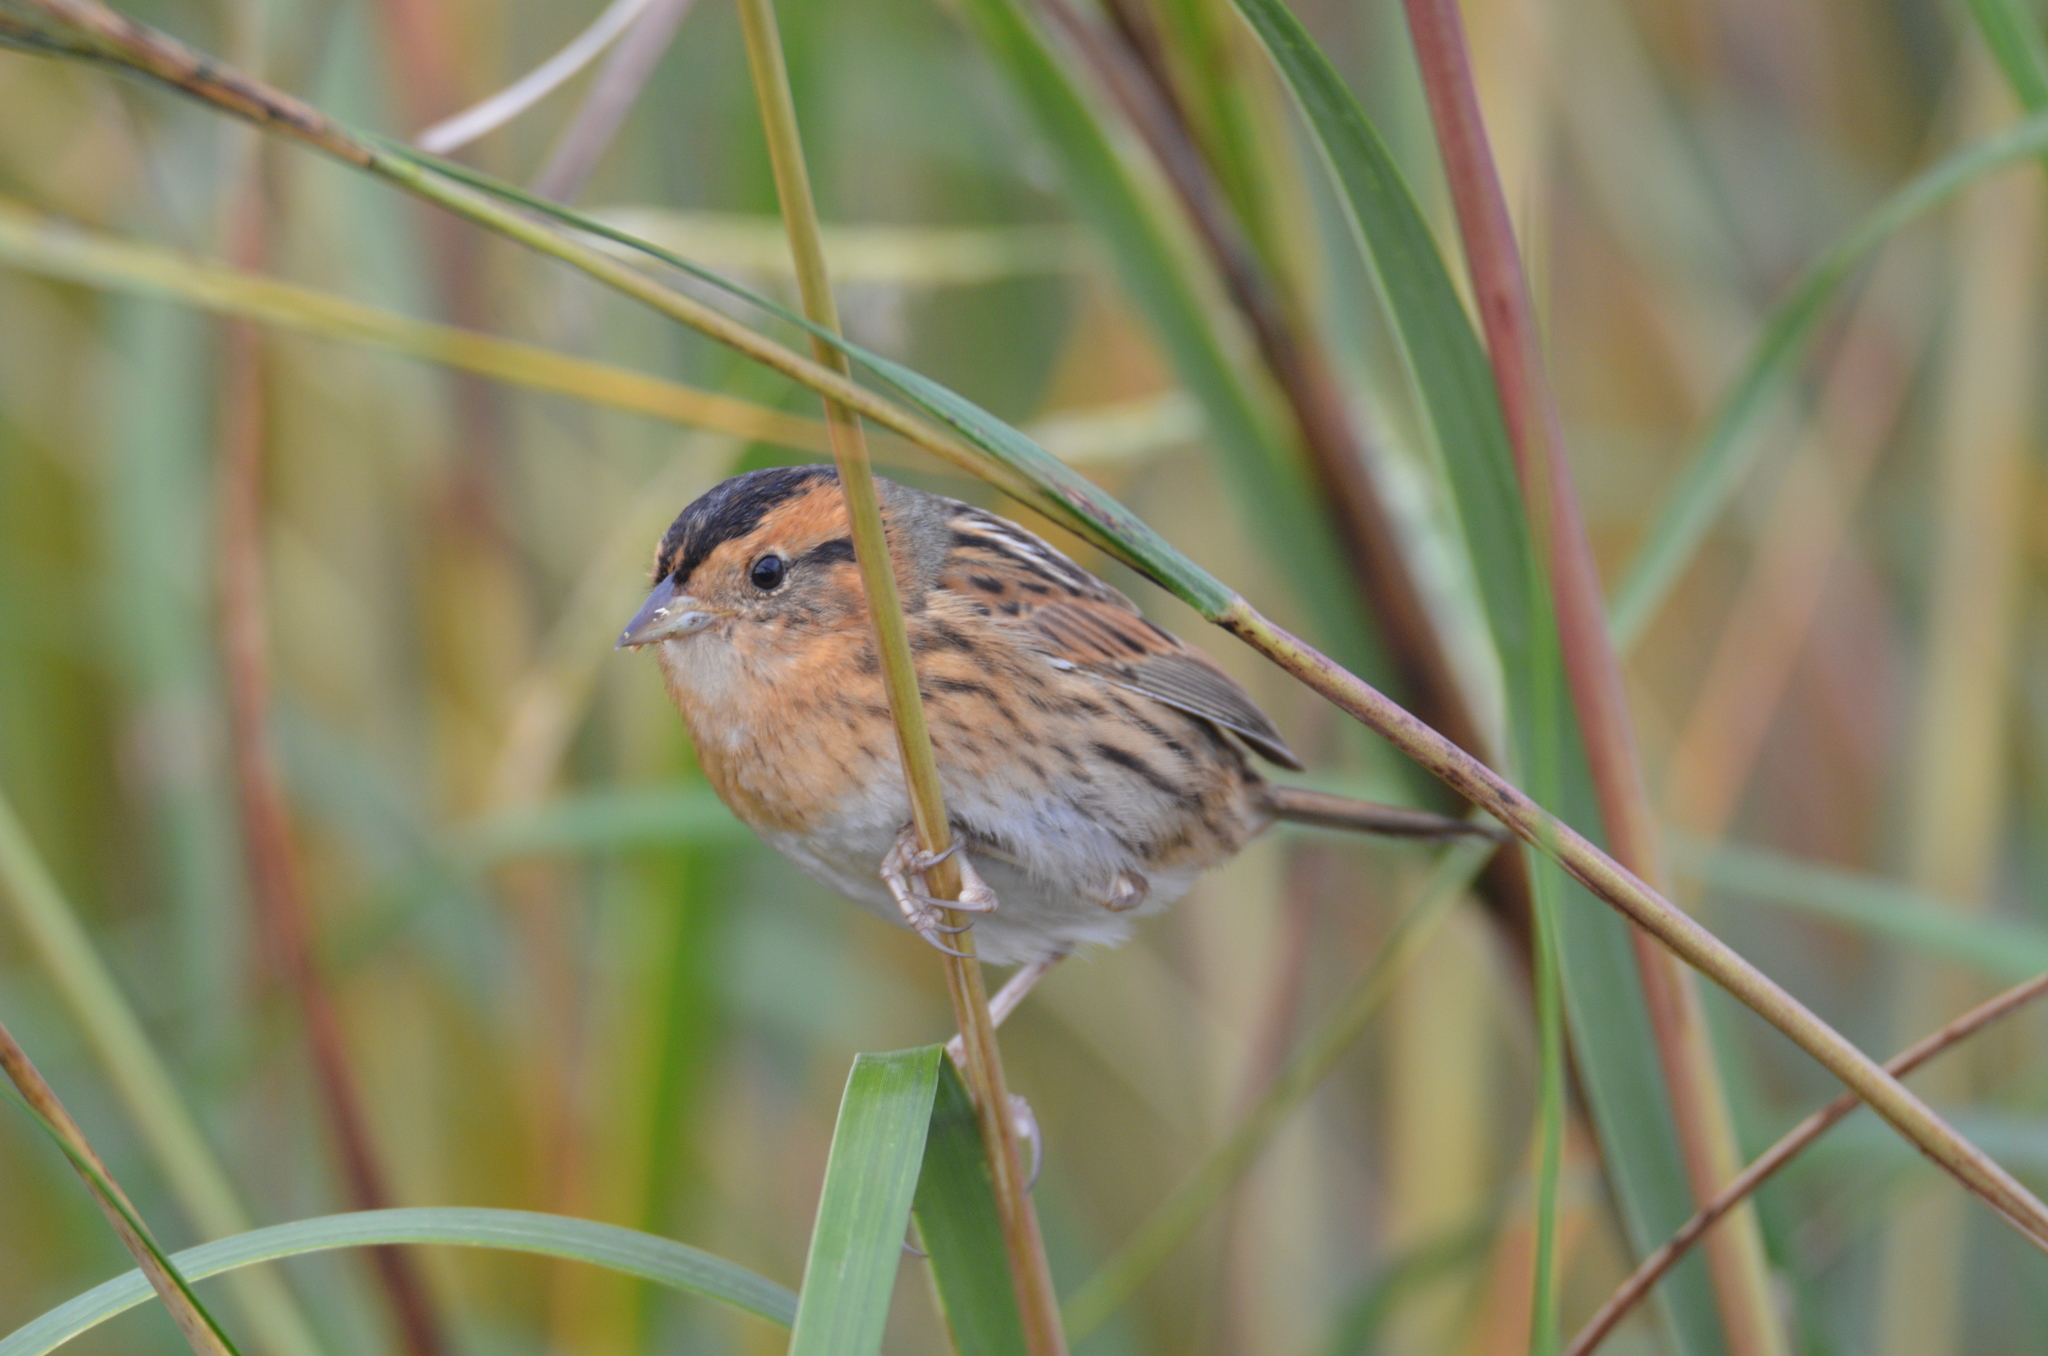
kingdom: Animalia
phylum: Chordata
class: Aves
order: Passeriformes
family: Passerellidae
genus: Ammospiza
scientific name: Ammospiza nelsoni
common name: Nelson's sparrow
